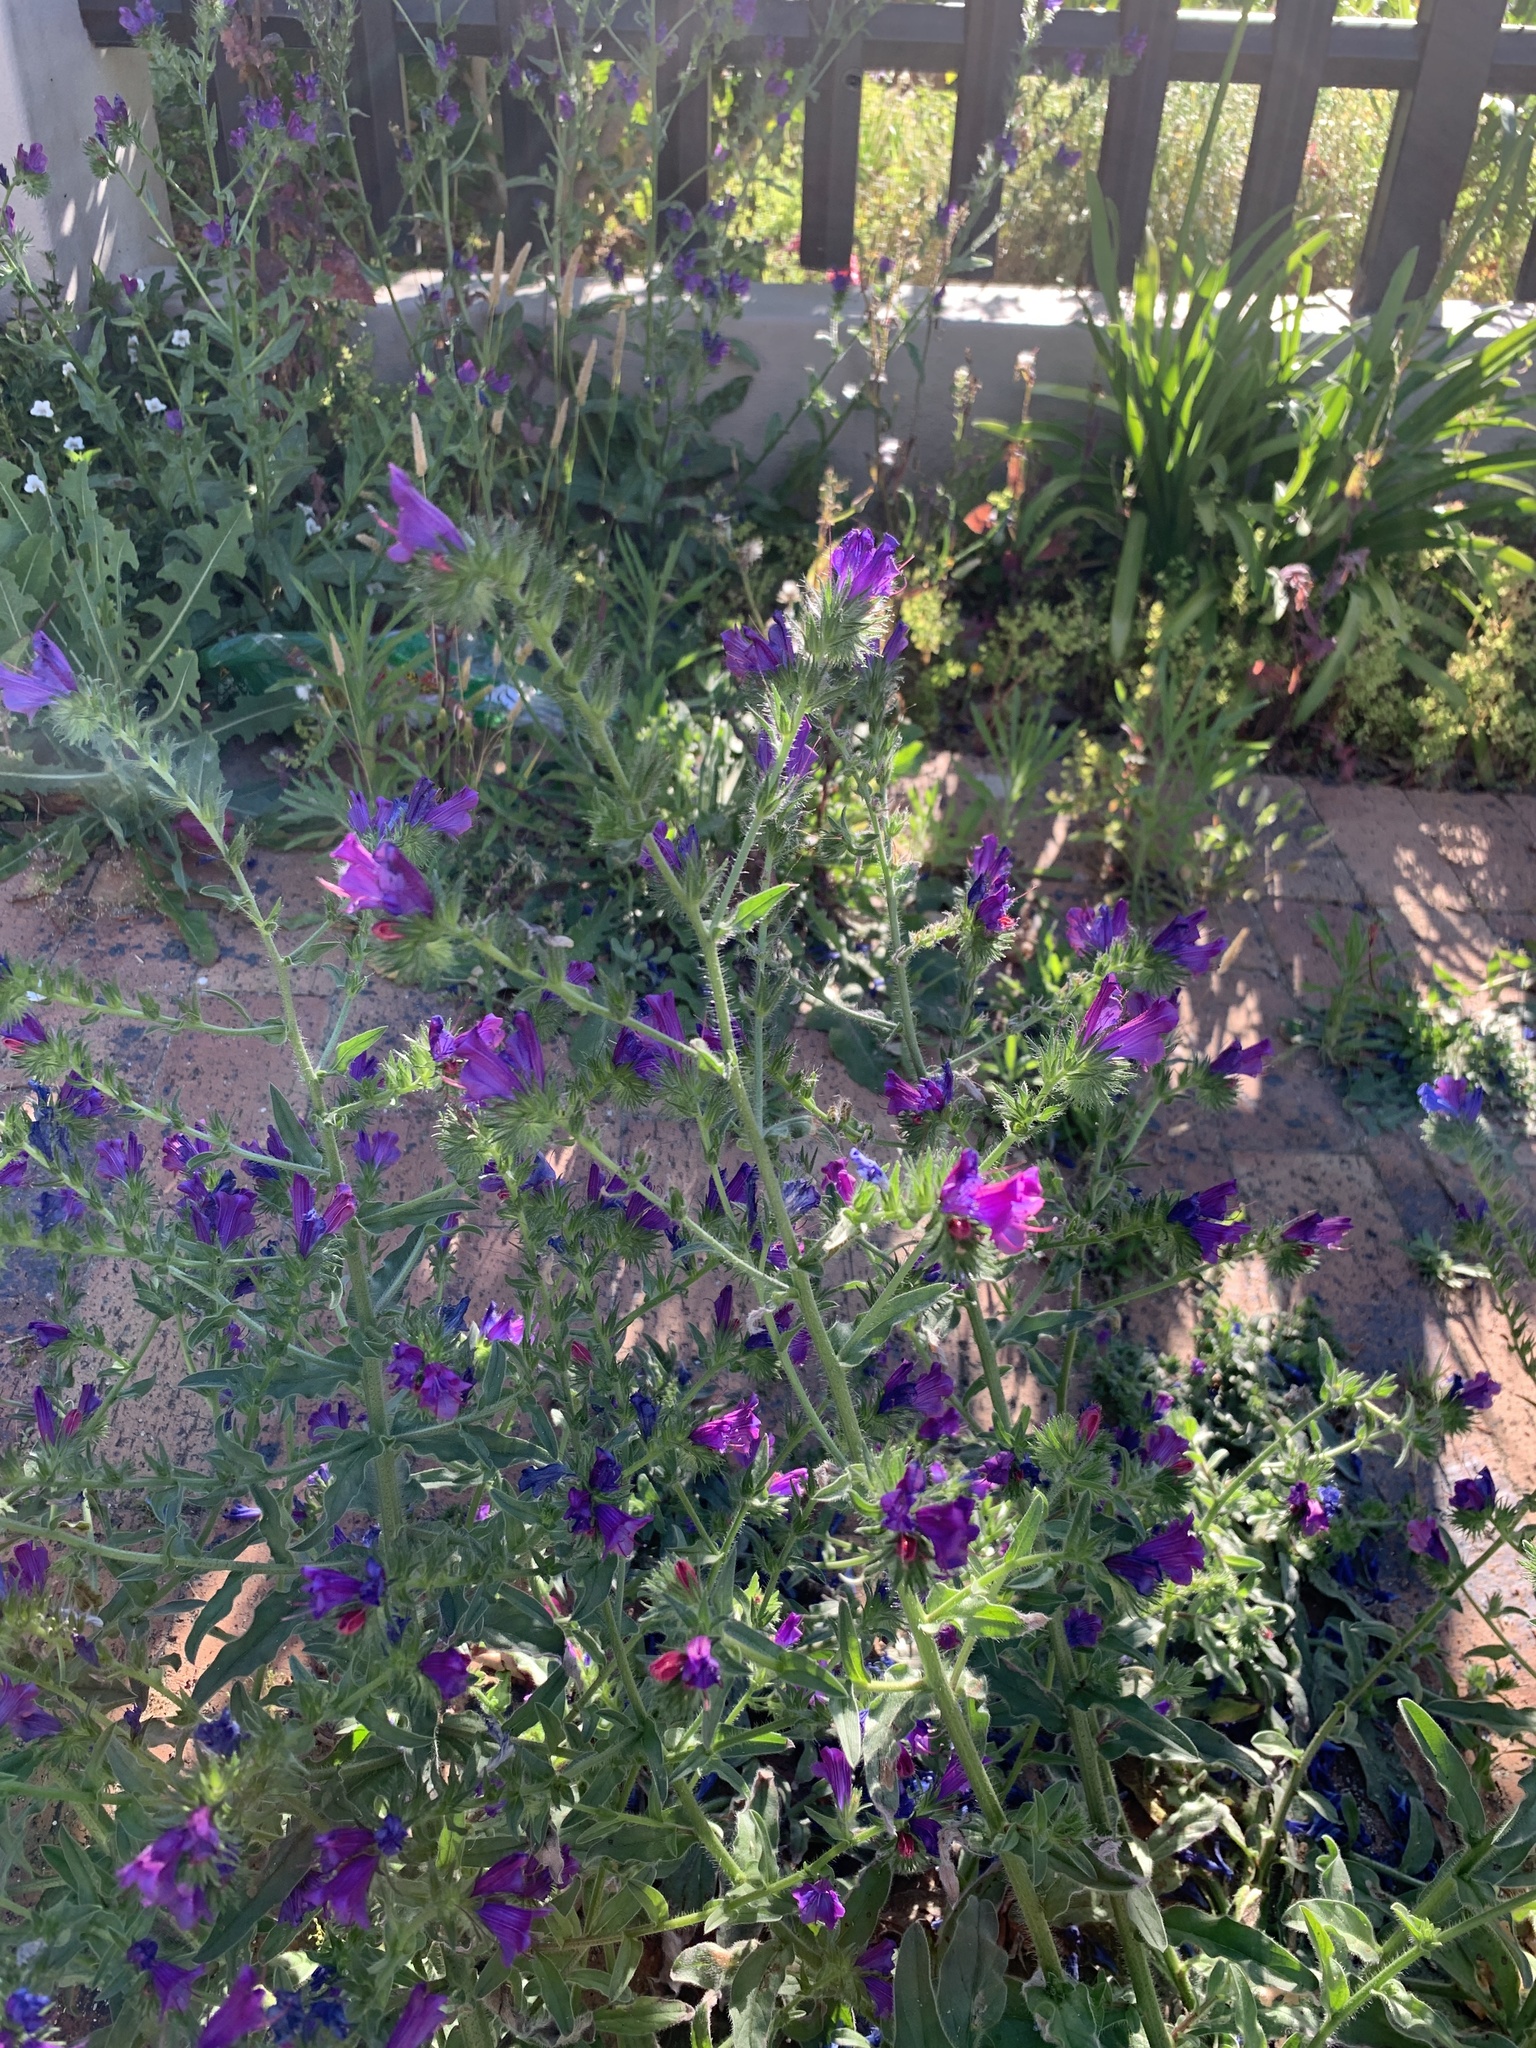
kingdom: Plantae
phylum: Tracheophyta
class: Magnoliopsida
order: Boraginales
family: Boraginaceae
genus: Echium
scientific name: Echium plantagineum
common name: Purple viper's-bugloss
